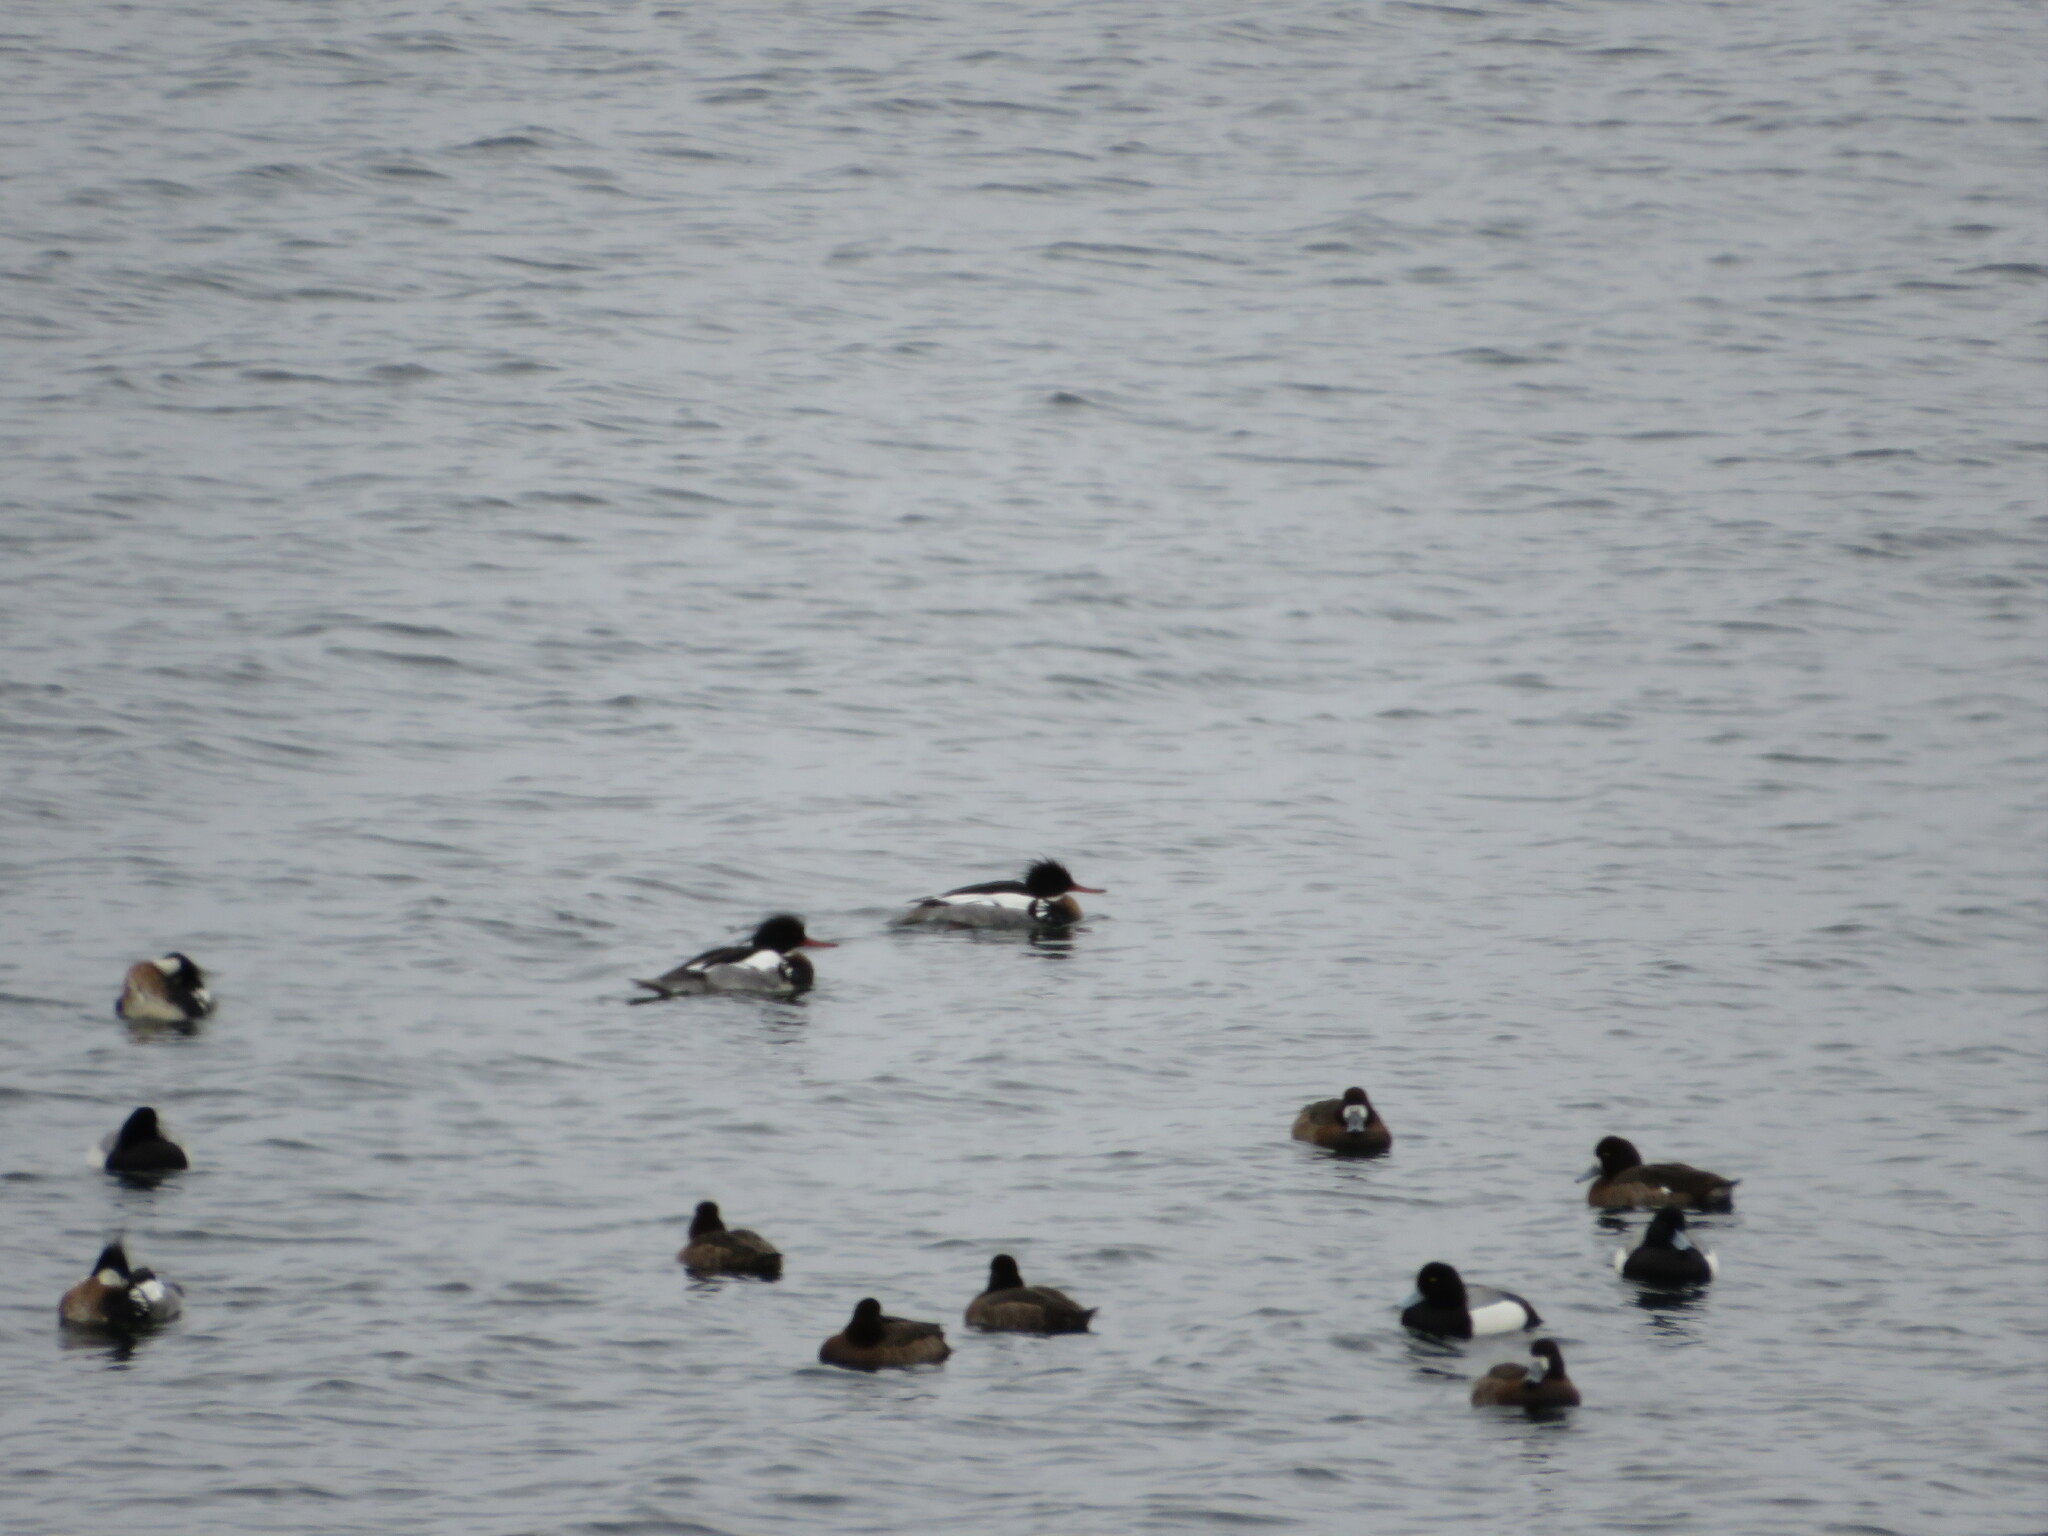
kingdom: Animalia
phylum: Chordata
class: Aves
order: Anseriformes
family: Anatidae
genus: Mergus
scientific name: Mergus serrator
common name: Red-breasted merganser
